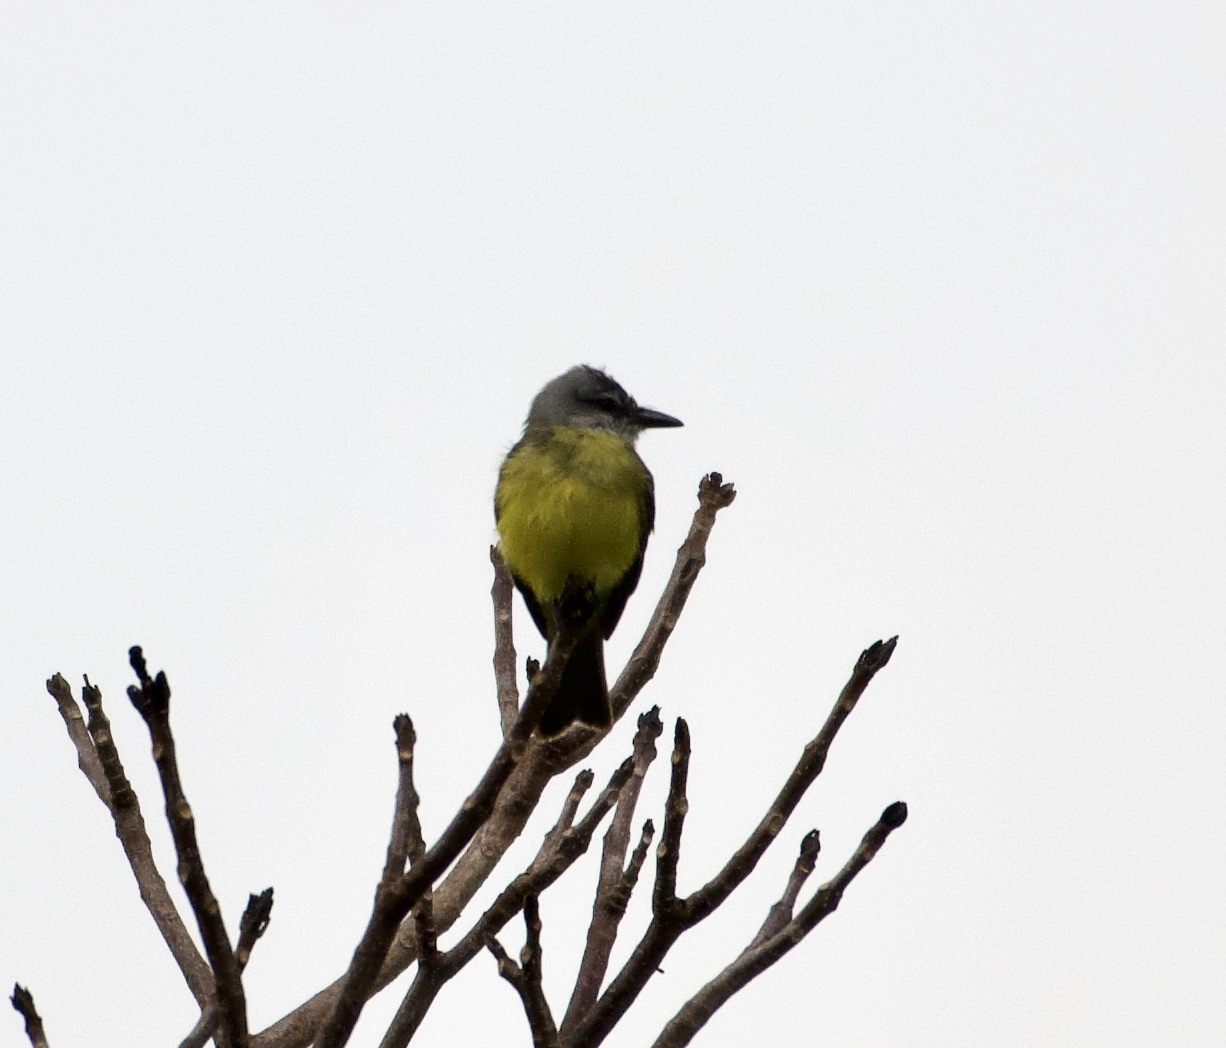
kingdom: Animalia
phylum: Chordata
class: Aves
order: Passeriformes
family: Tyrannidae
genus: Tyrannus
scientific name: Tyrannus melancholicus
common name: Tropical kingbird
